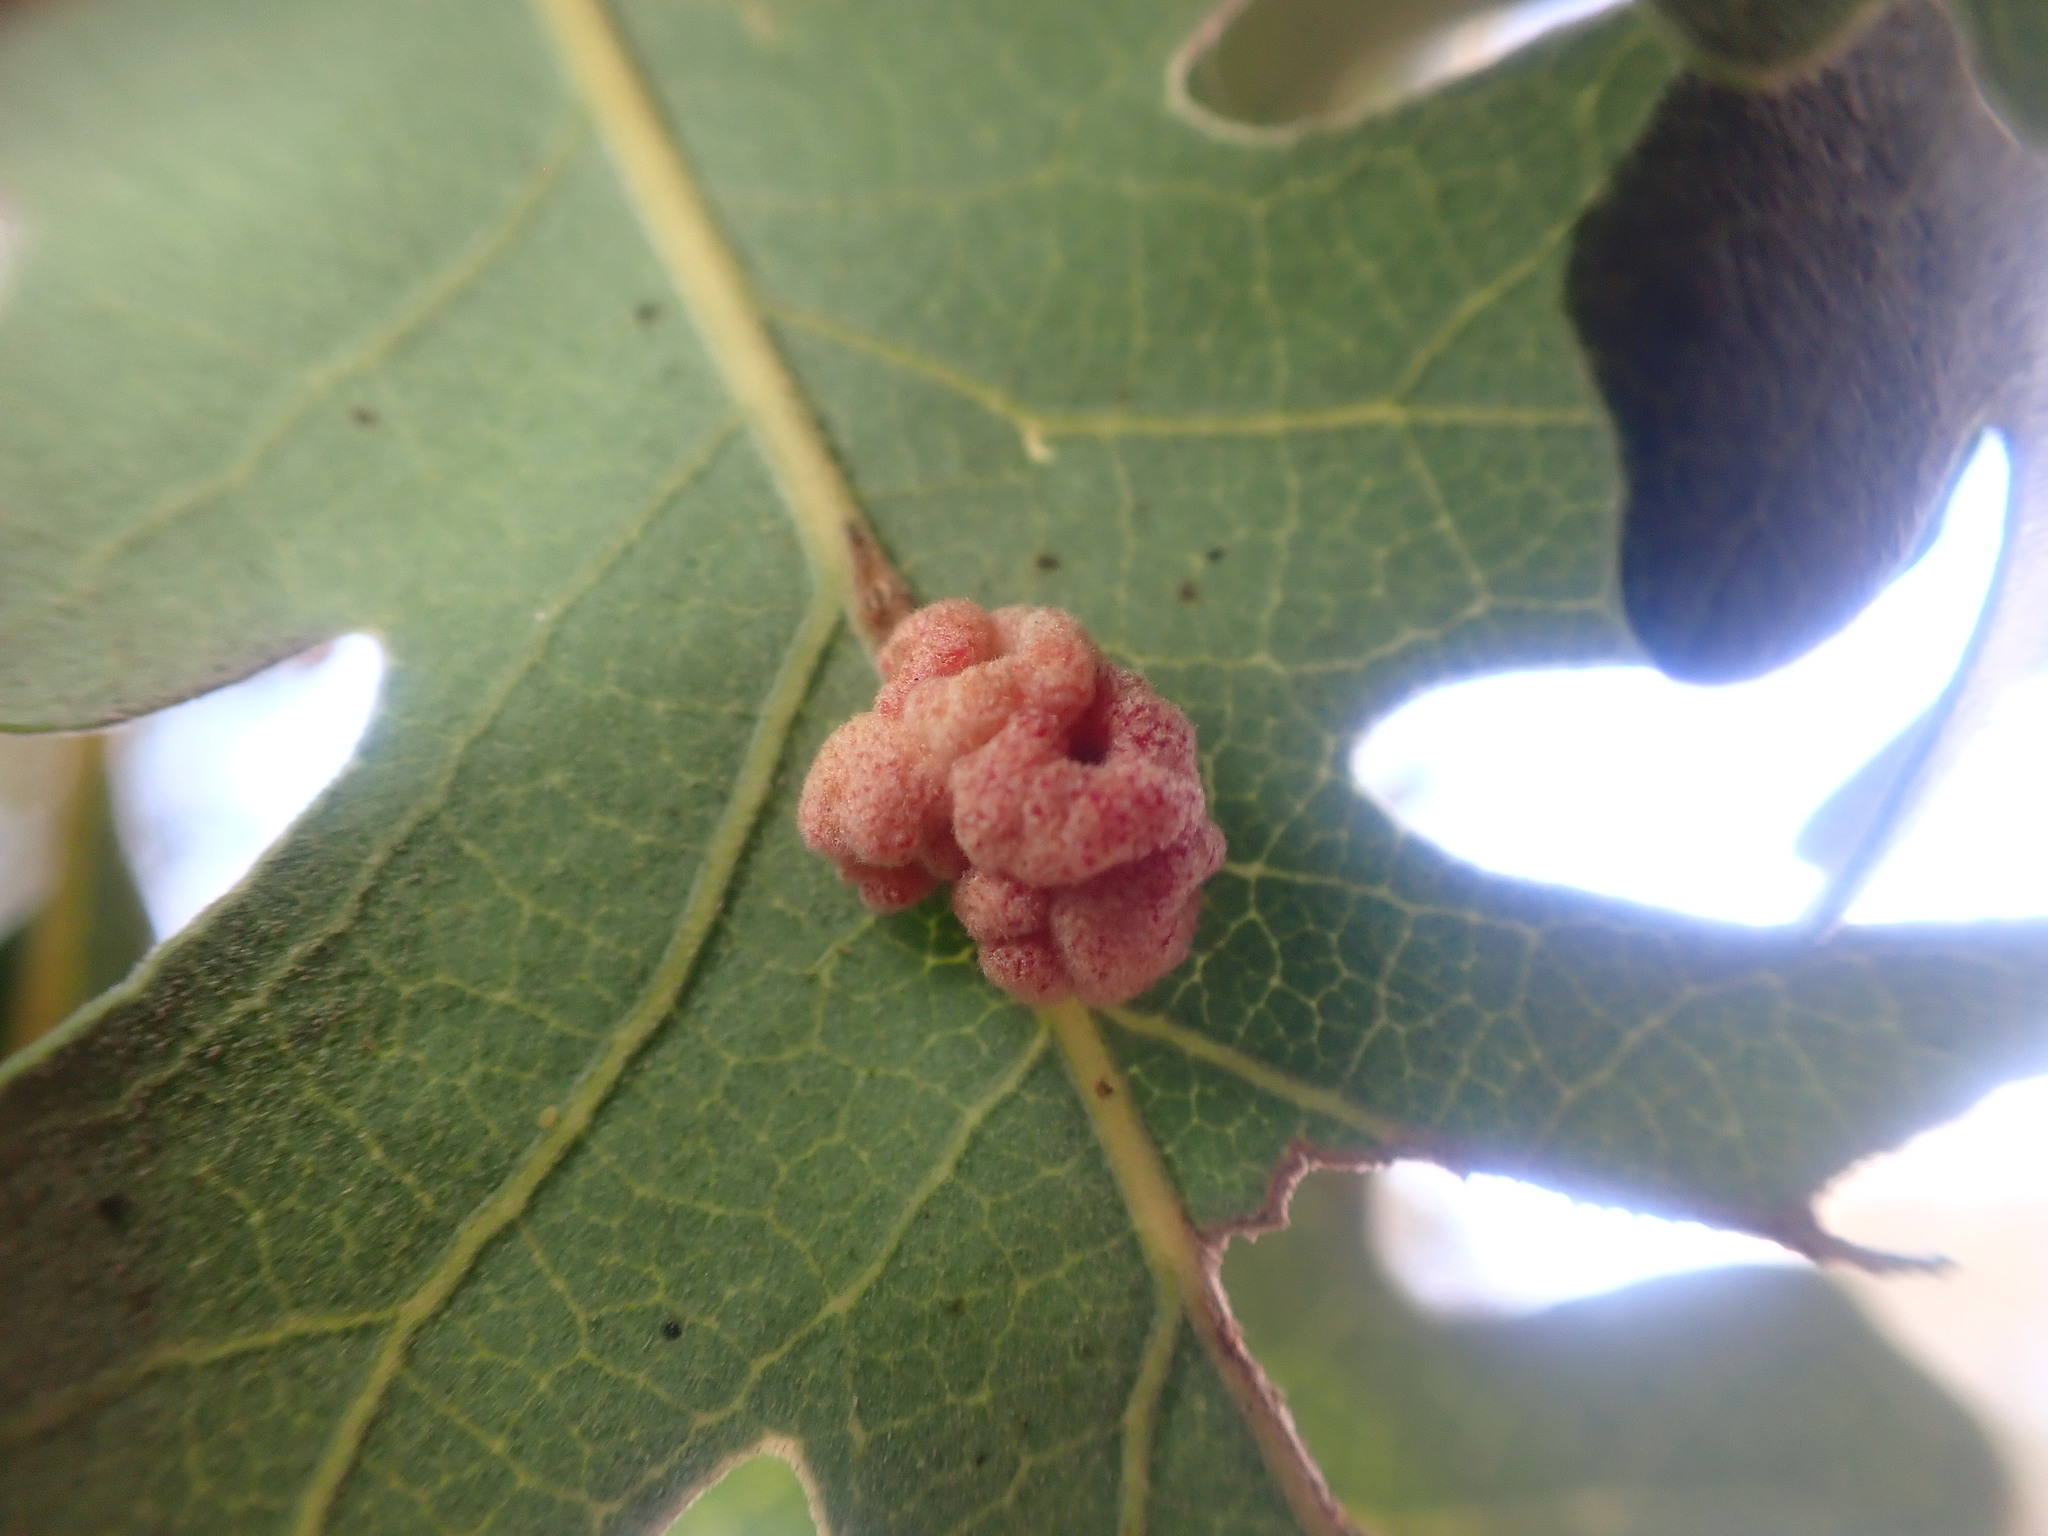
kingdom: Animalia
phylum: Arthropoda
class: Insecta
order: Hymenoptera
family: Cynipidae
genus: Andricus
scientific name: Andricus
